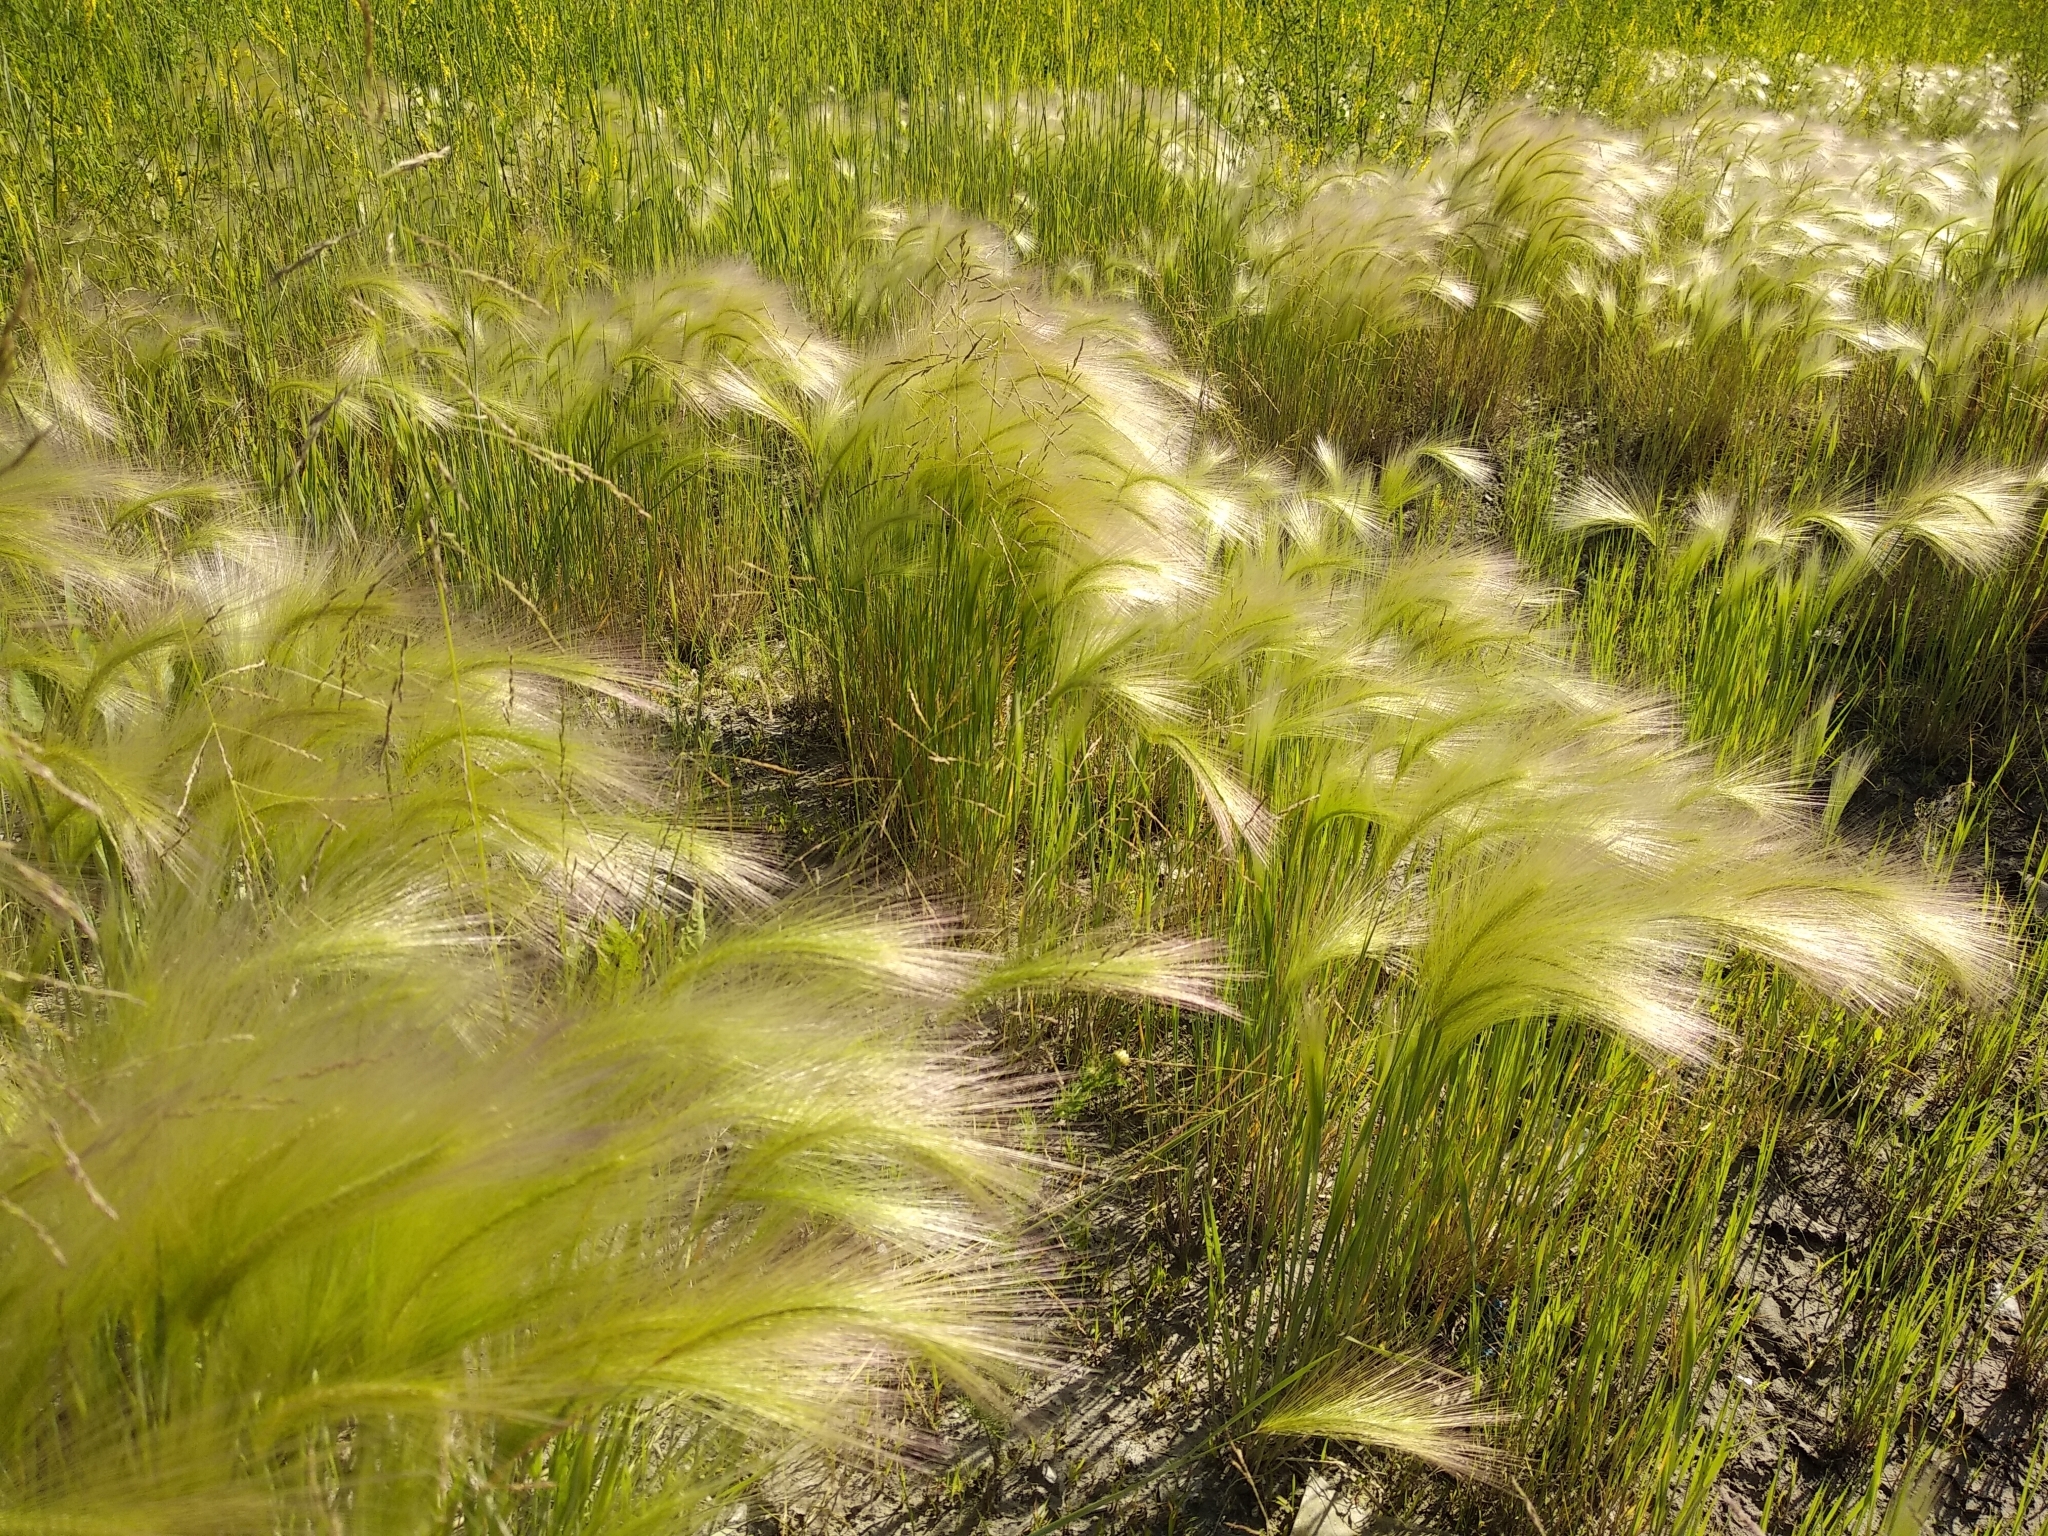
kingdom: Plantae
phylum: Tracheophyta
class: Liliopsida
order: Poales
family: Poaceae
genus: Hordeum
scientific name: Hordeum jubatum
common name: Foxtail barley
